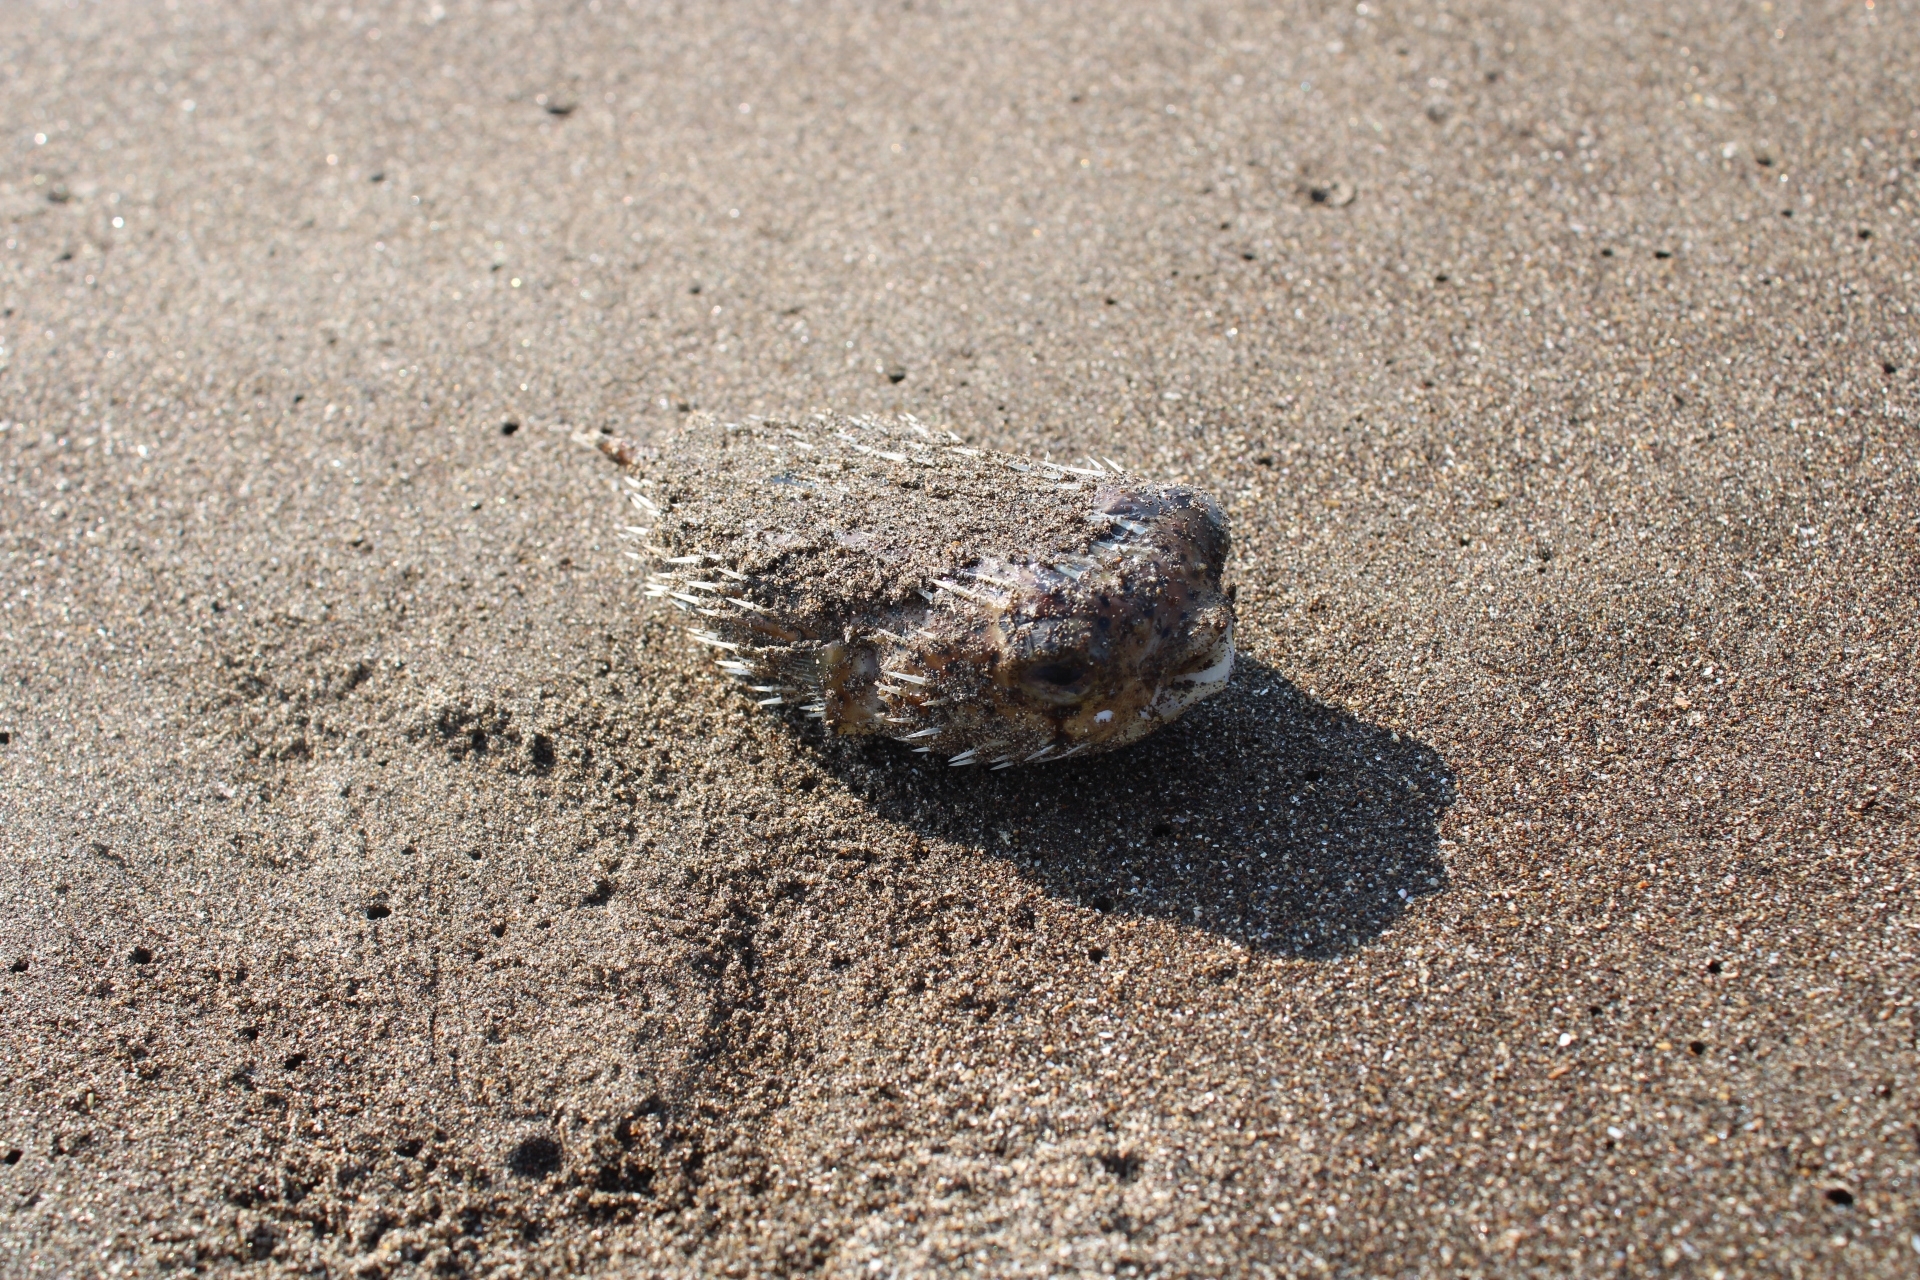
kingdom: Animalia
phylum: Chordata
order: Tetraodontiformes
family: Diodontidae
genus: Diodon
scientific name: Diodon hystrix
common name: Giant porcupinefish
